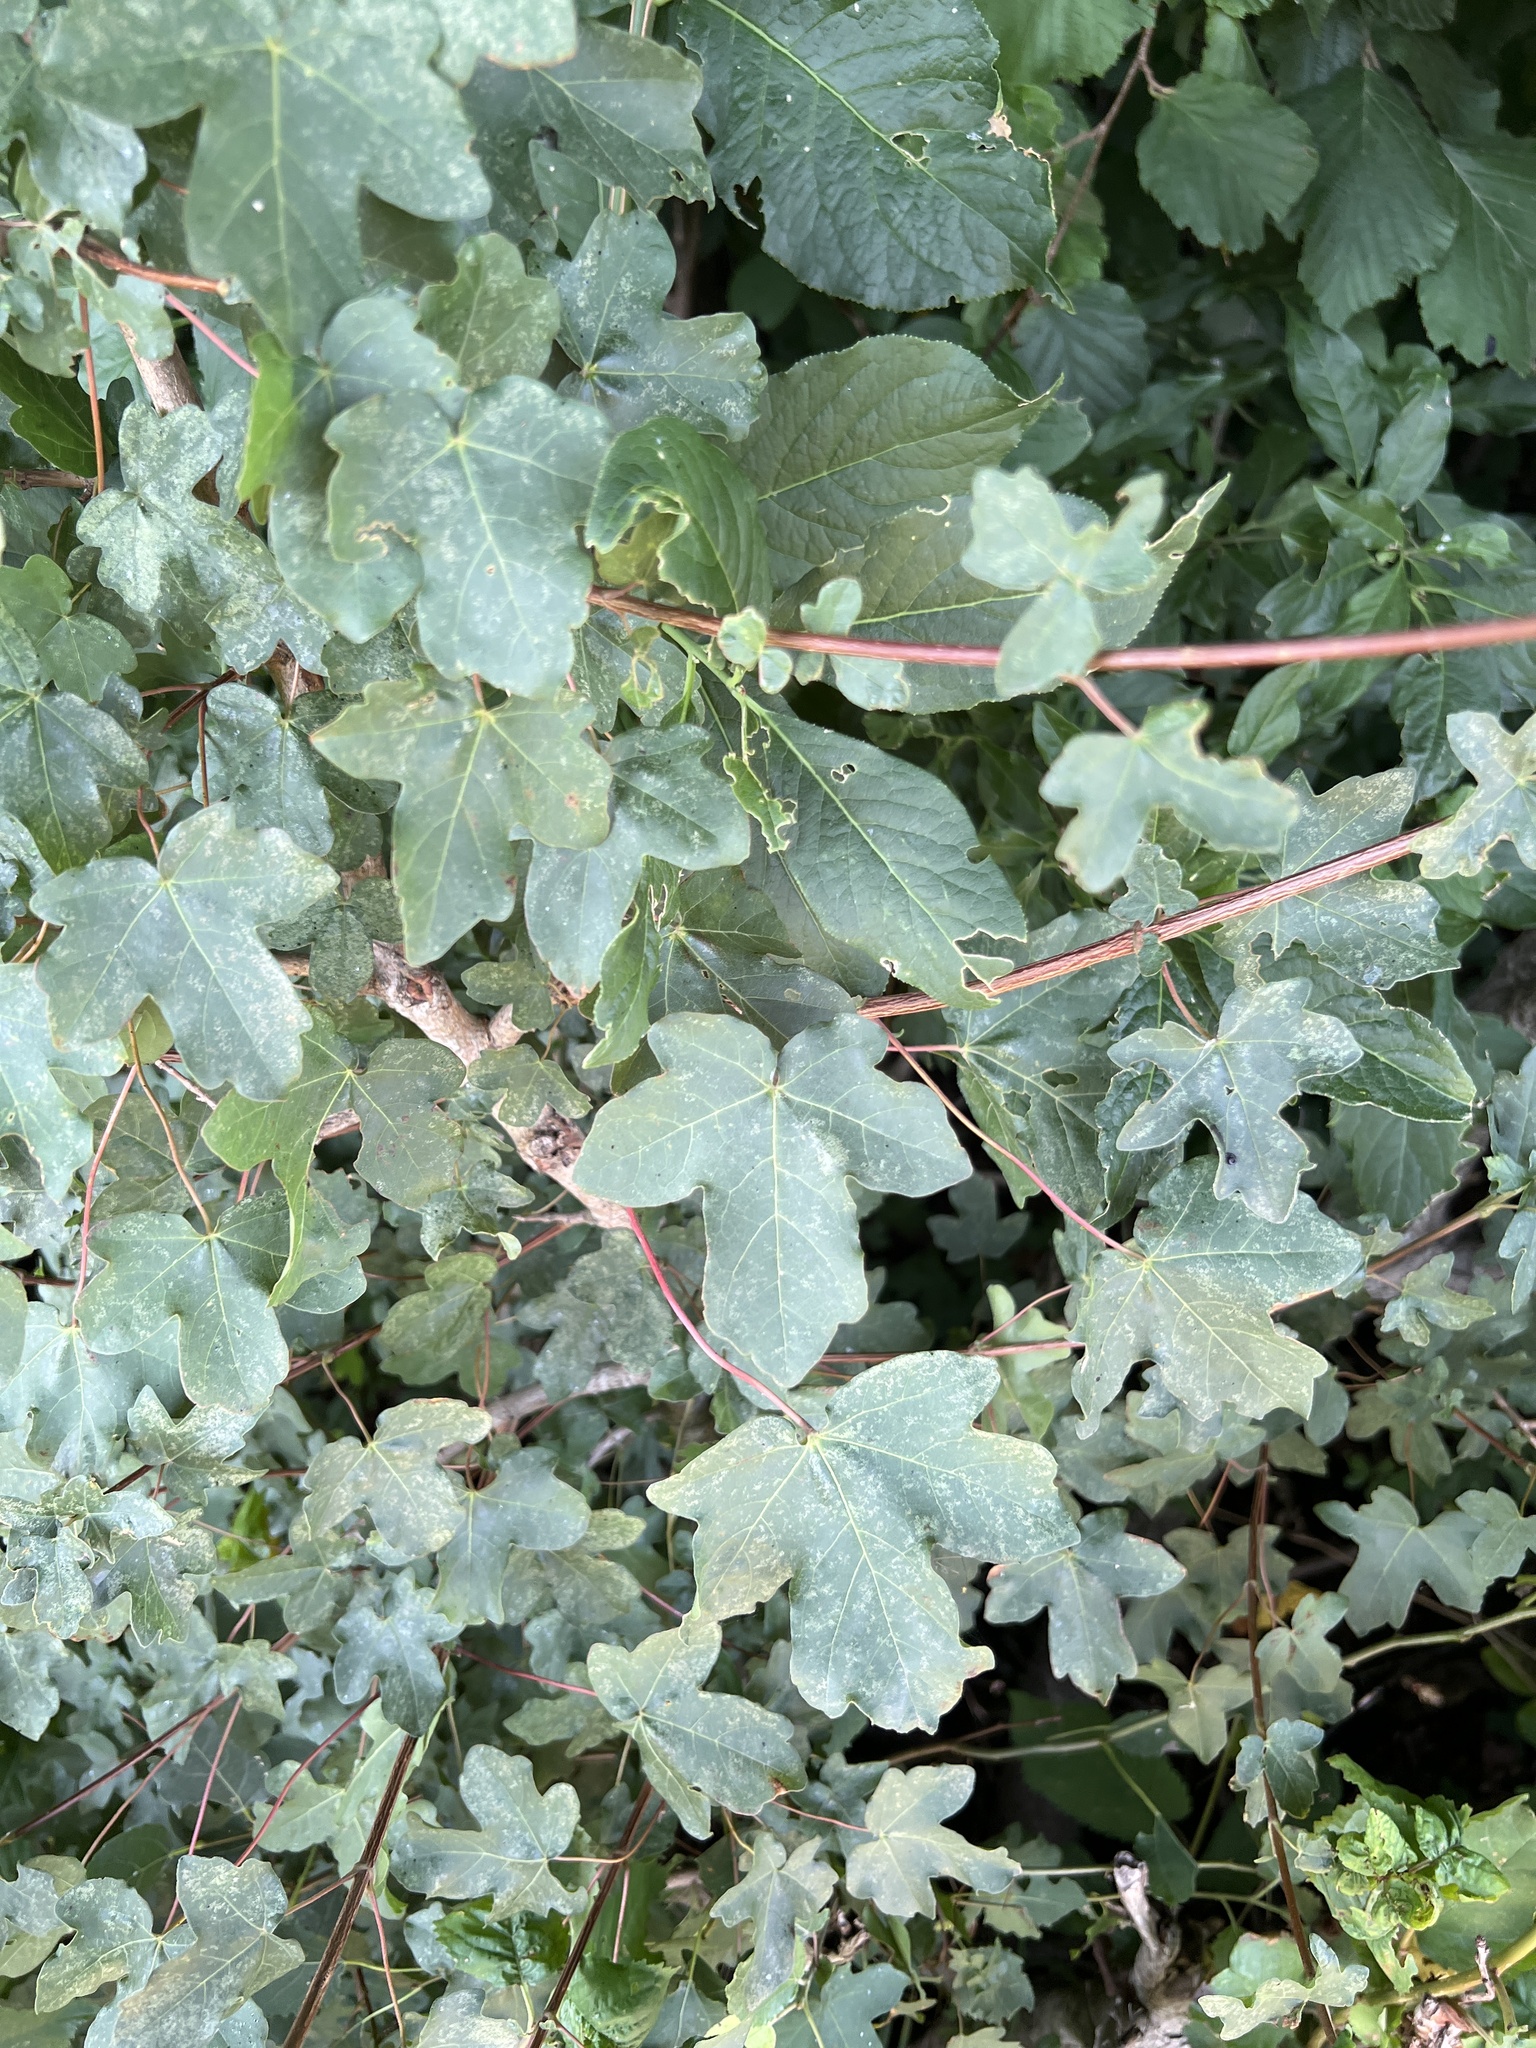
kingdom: Plantae
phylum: Tracheophyta
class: Magnoliopsida
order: Sapindales
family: Sapindaceae
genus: Acer
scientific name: Acer campestre
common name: Field maple
